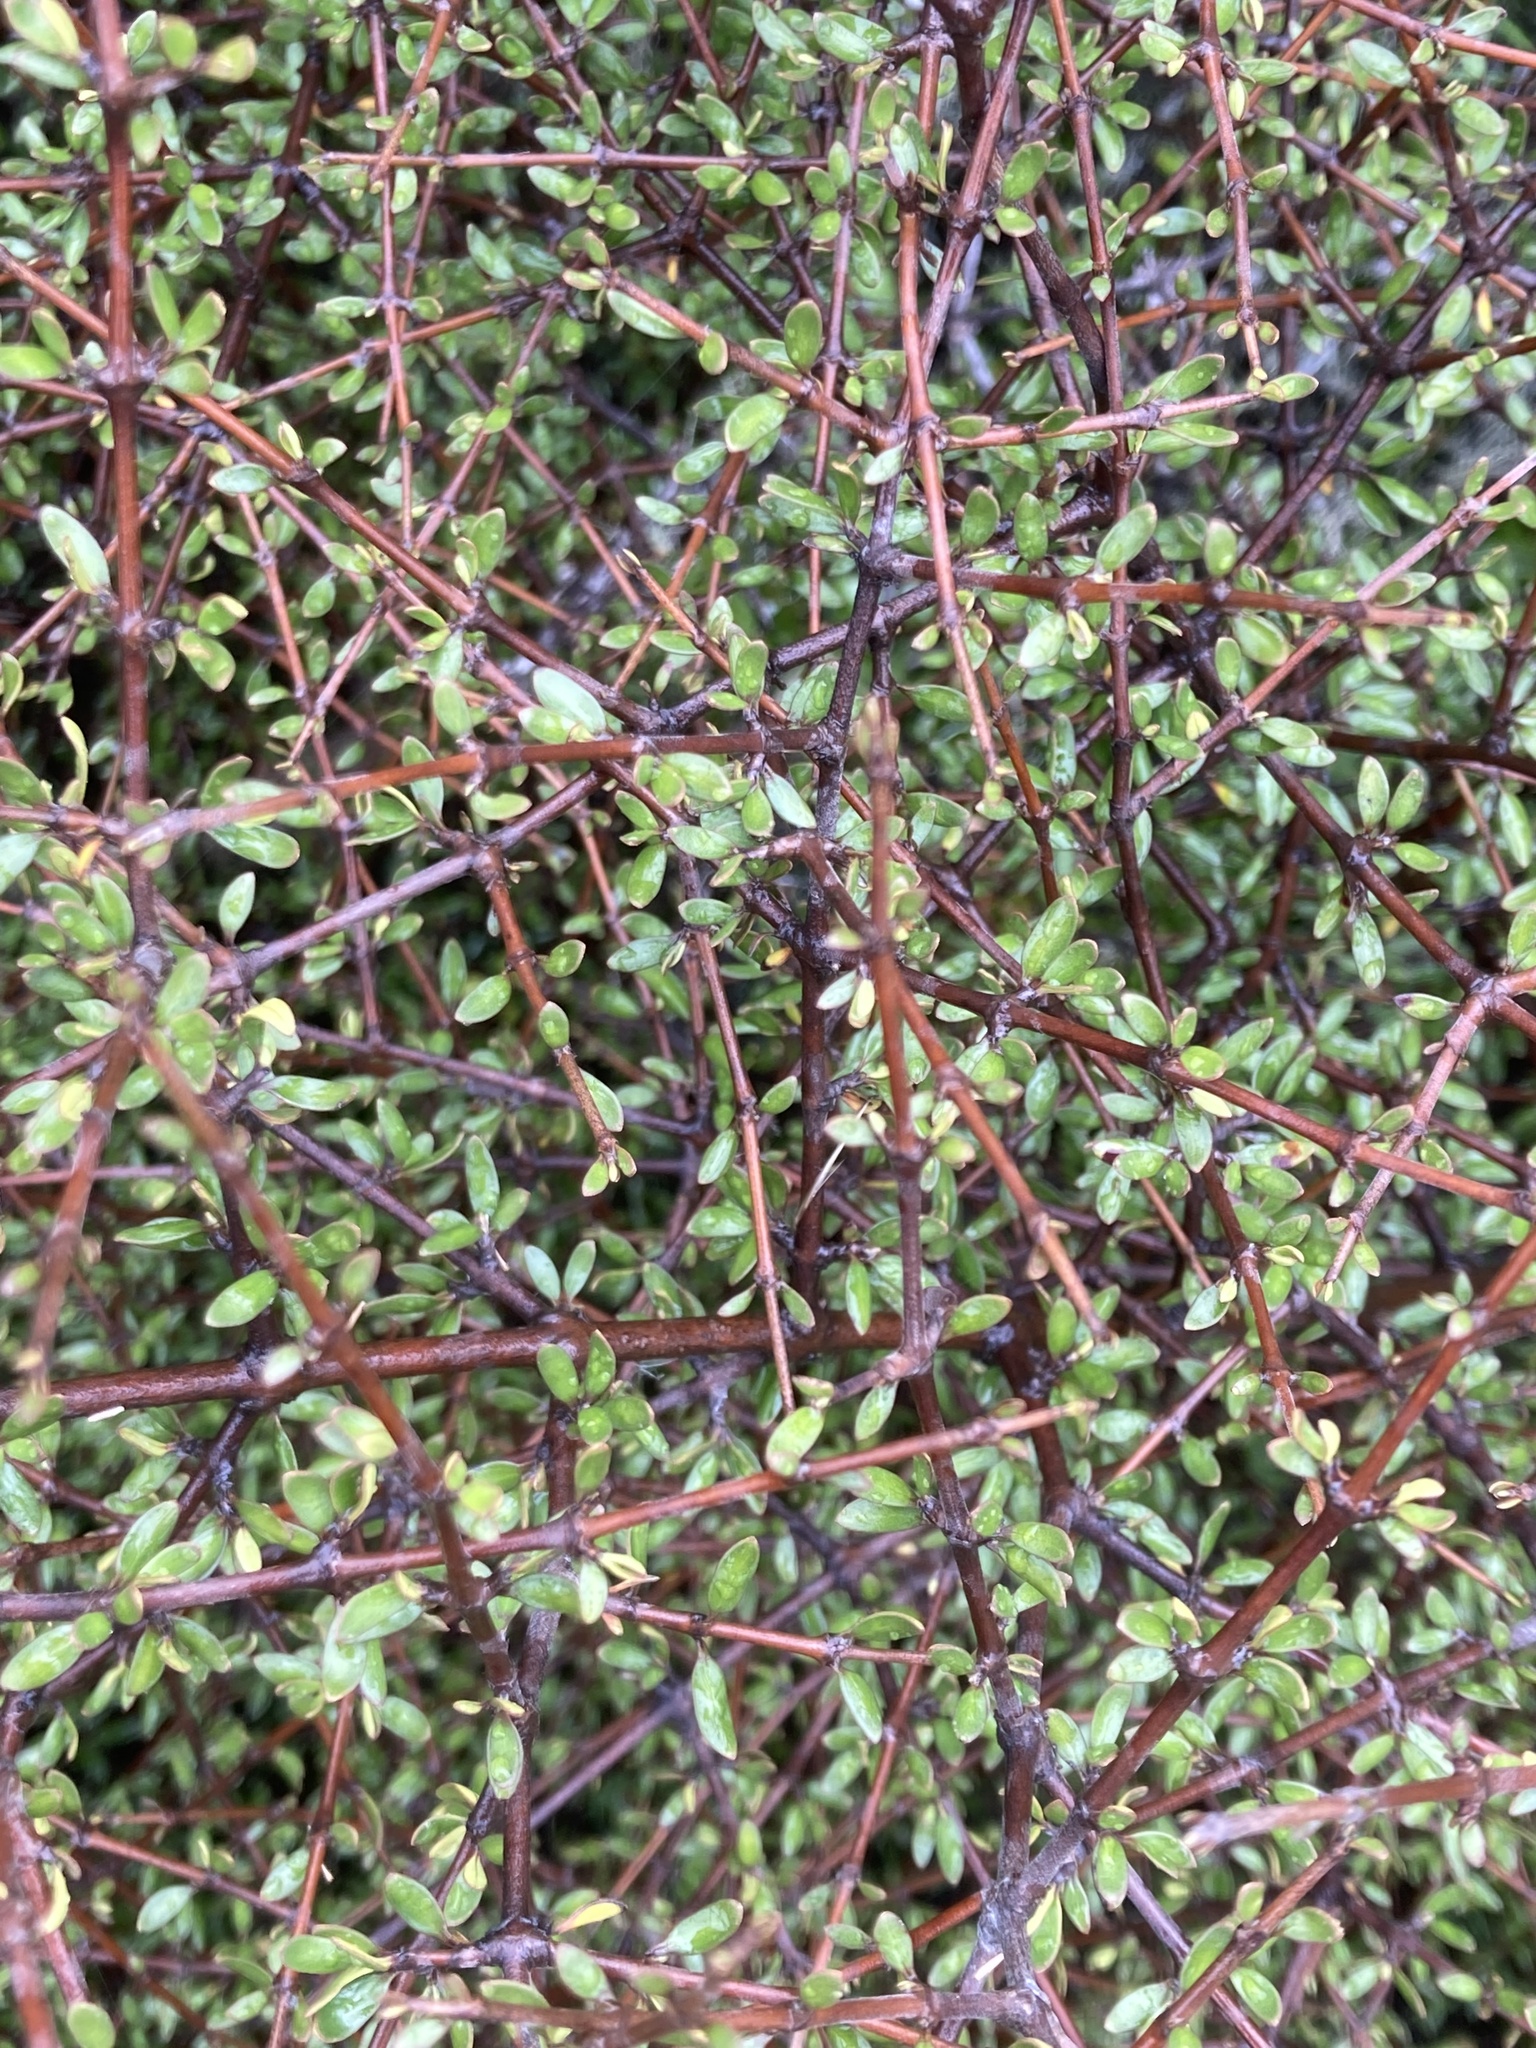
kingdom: Plantae
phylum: Tracheophyta
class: Magnoliopsida
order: Gentianales
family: Rubiaceae
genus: Coprosma
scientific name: Coprosma propinqua
